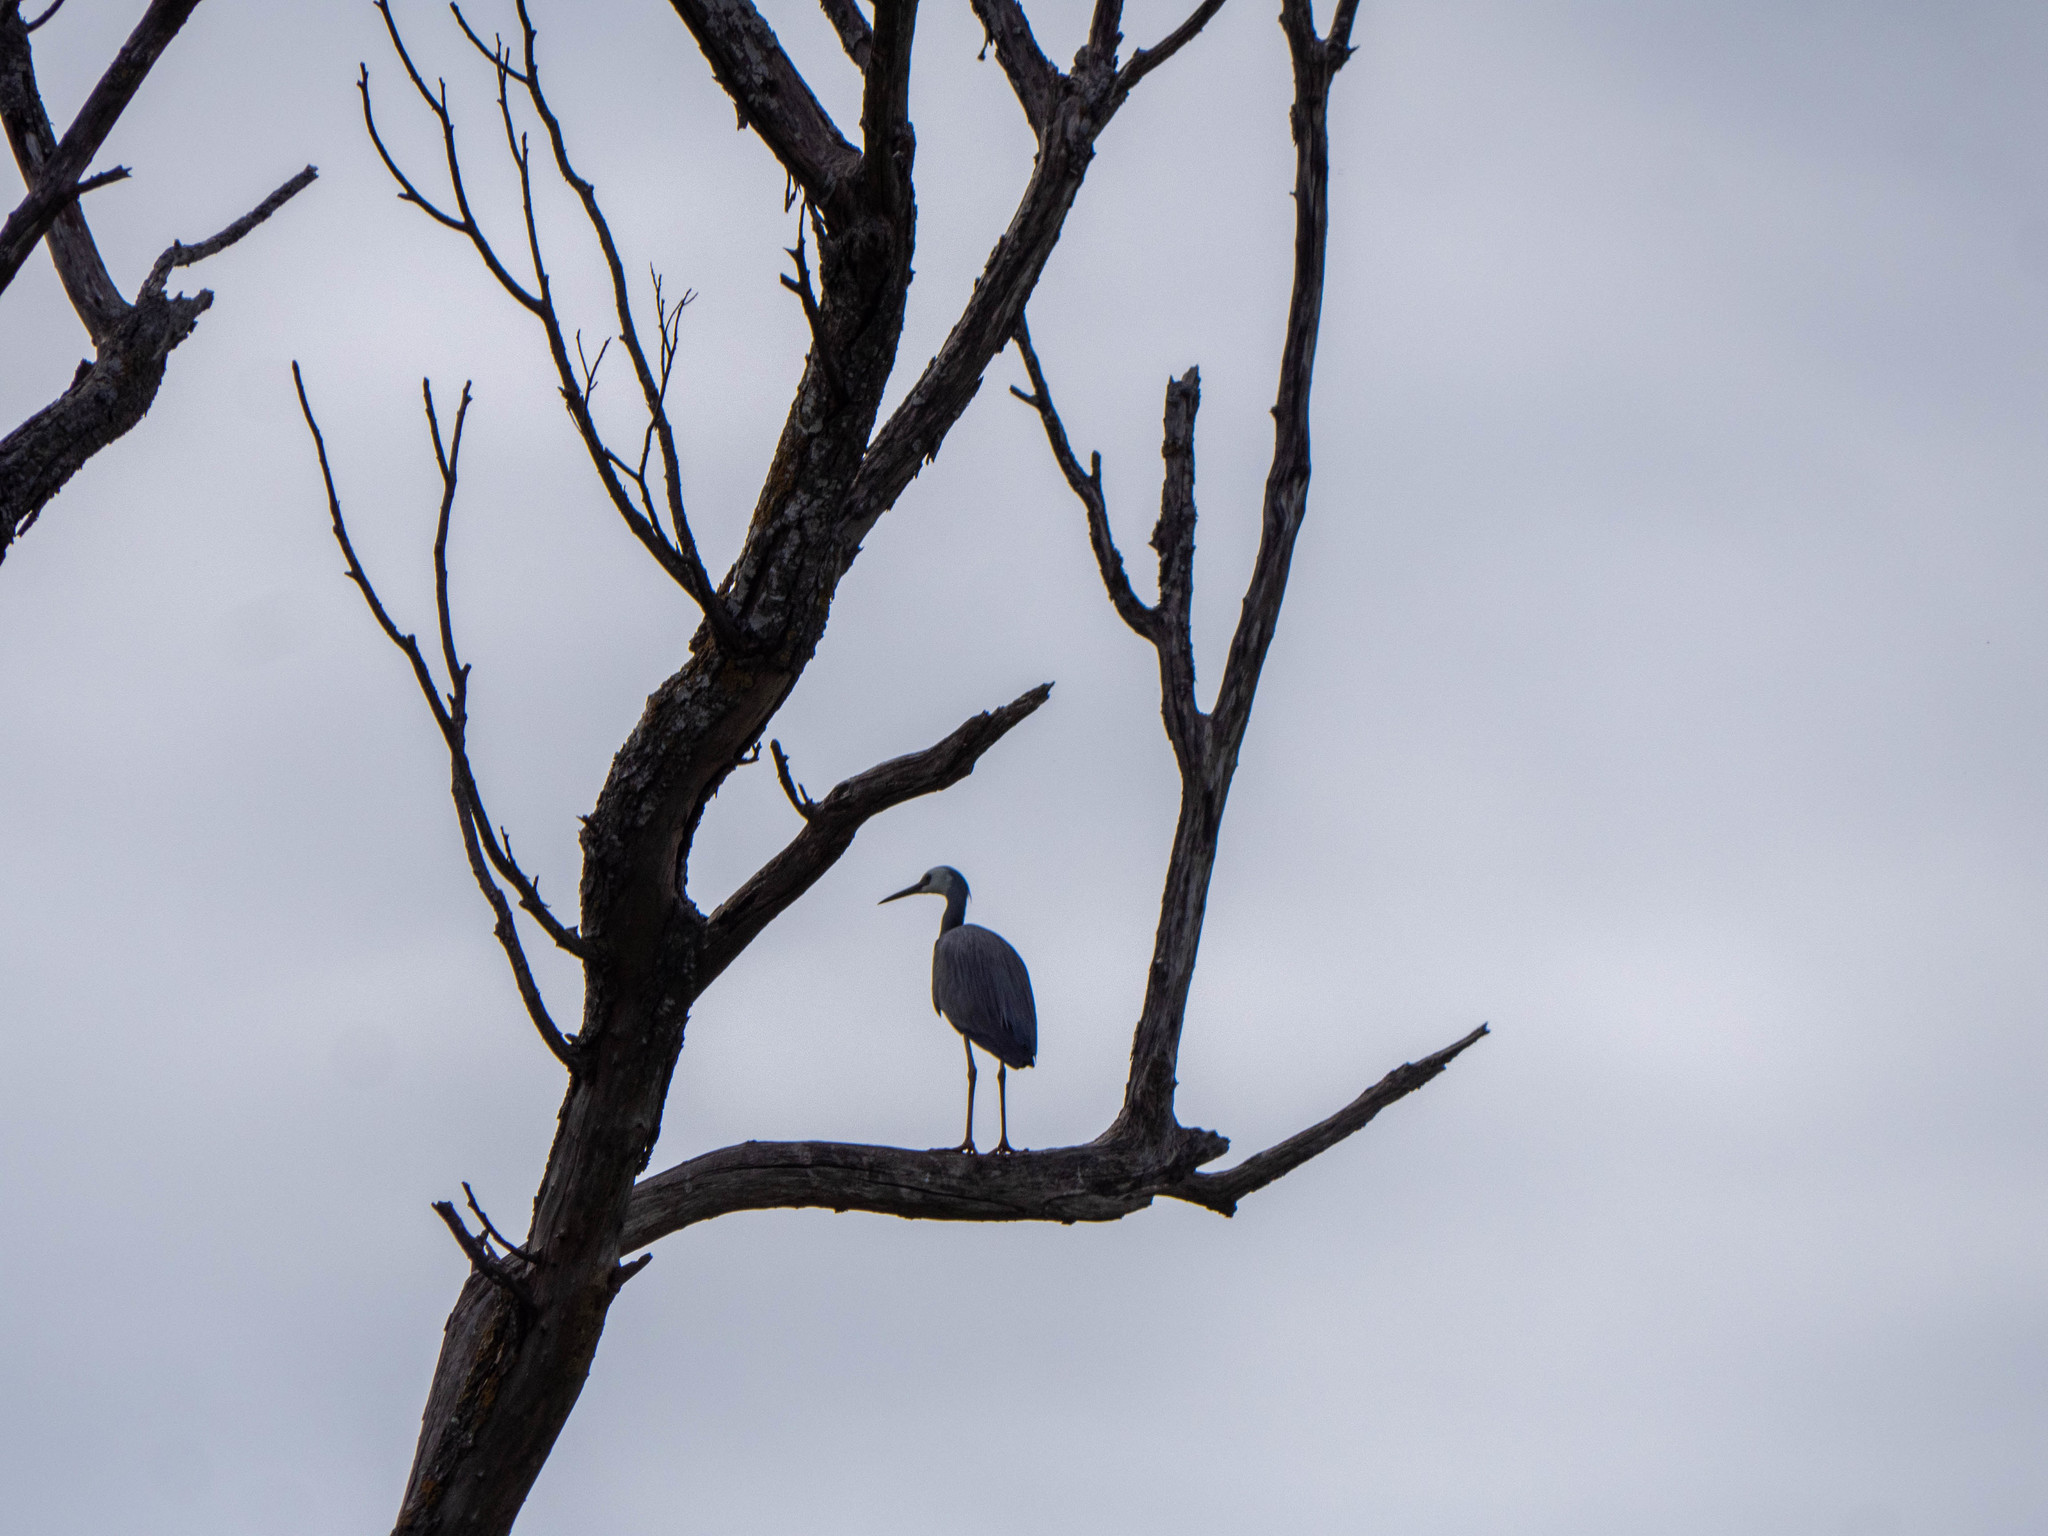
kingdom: Animalia
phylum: Chordata
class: Aves
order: Pelecaniformes
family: Ardeidae
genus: Egretta
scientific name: Egretta novaehollandiae
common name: White-faced heron
